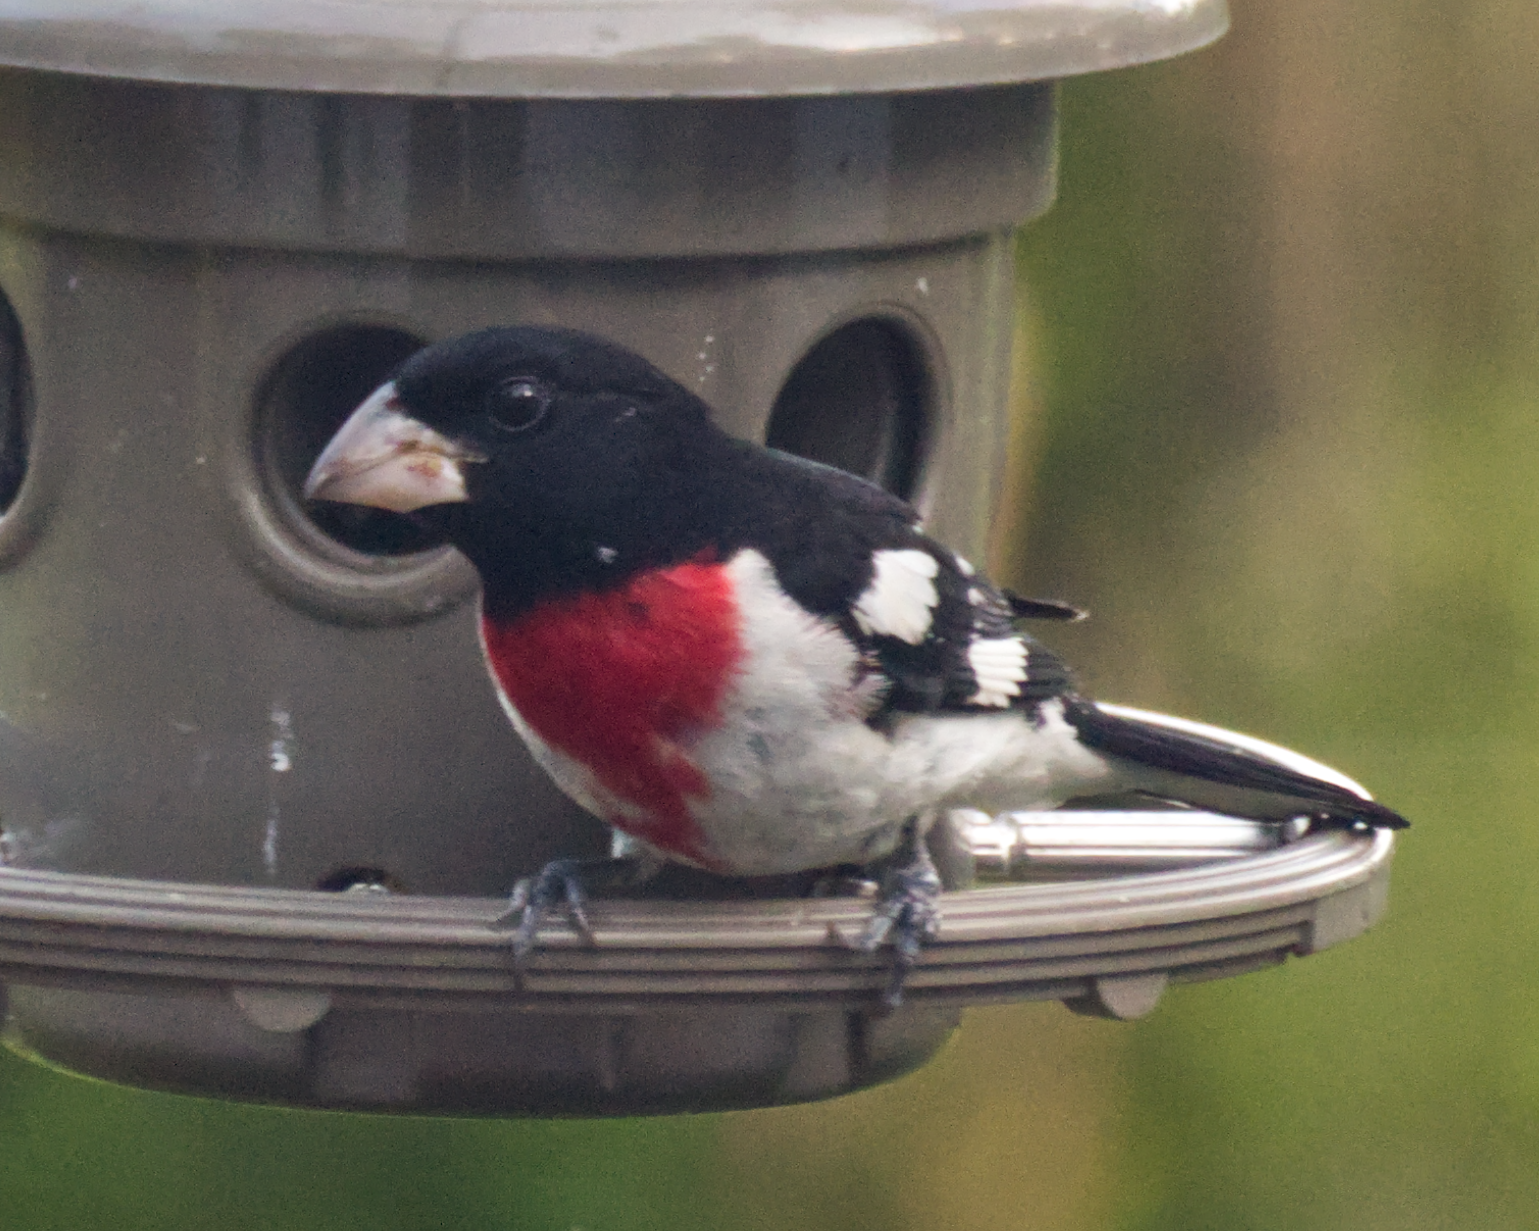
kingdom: Animalia
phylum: Chordata
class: Aves
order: Passeriformes
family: Cardinalidae
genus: Pheucticus
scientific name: Pheucticus ludovicianus
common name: Rose-breasted grosbeak
